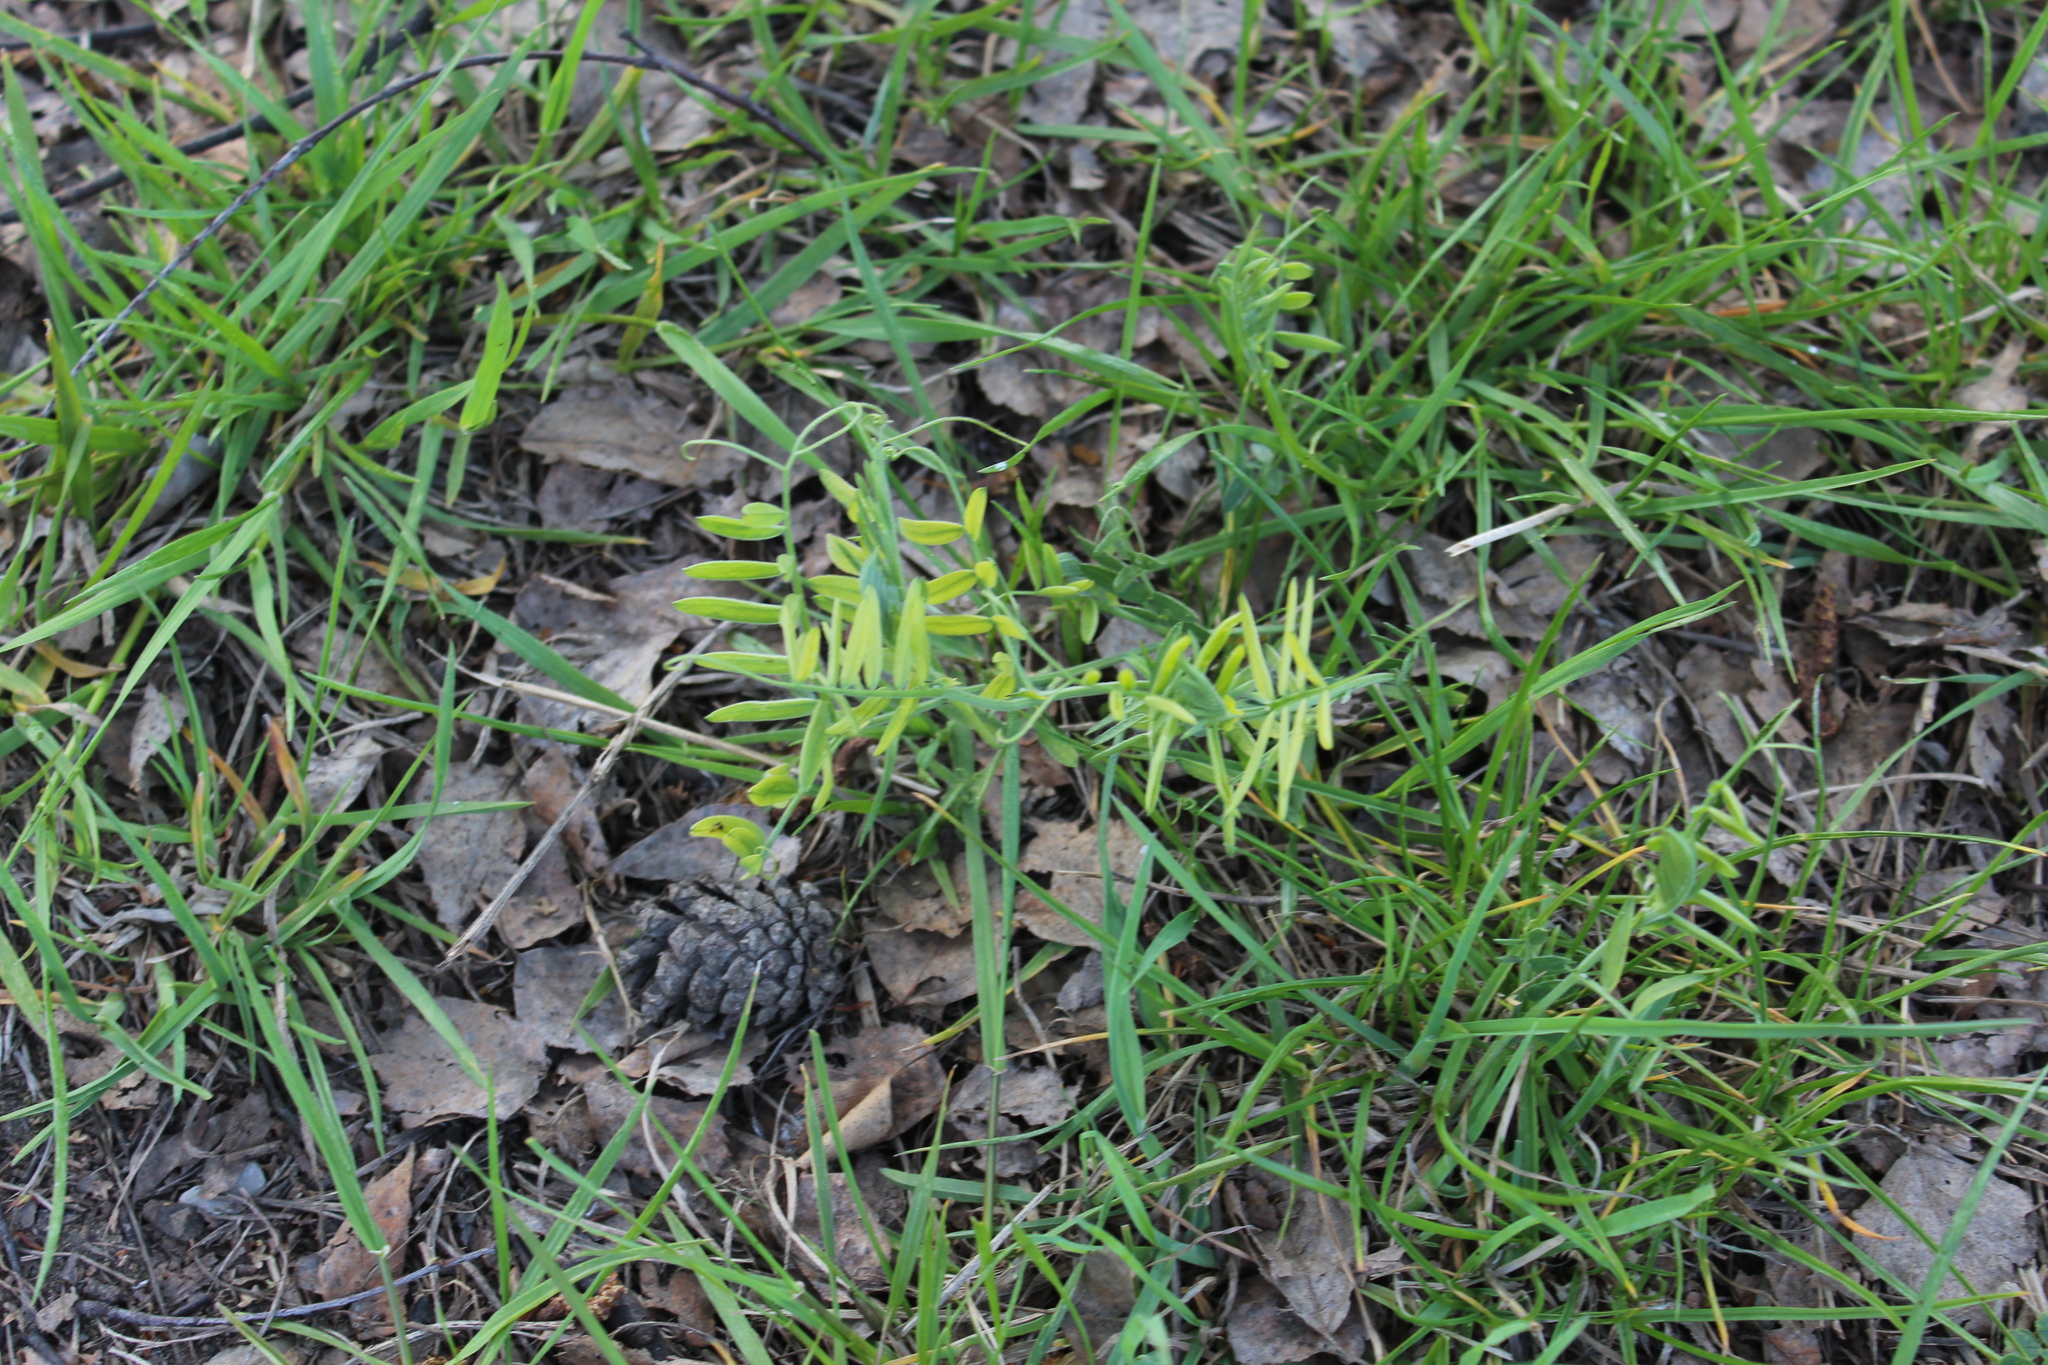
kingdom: Plantae
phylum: Tracheophyta
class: Magnoliopsida
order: Fabales
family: Fabaceae
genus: Vicia
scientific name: Vicia cracca
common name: Bird vetch
